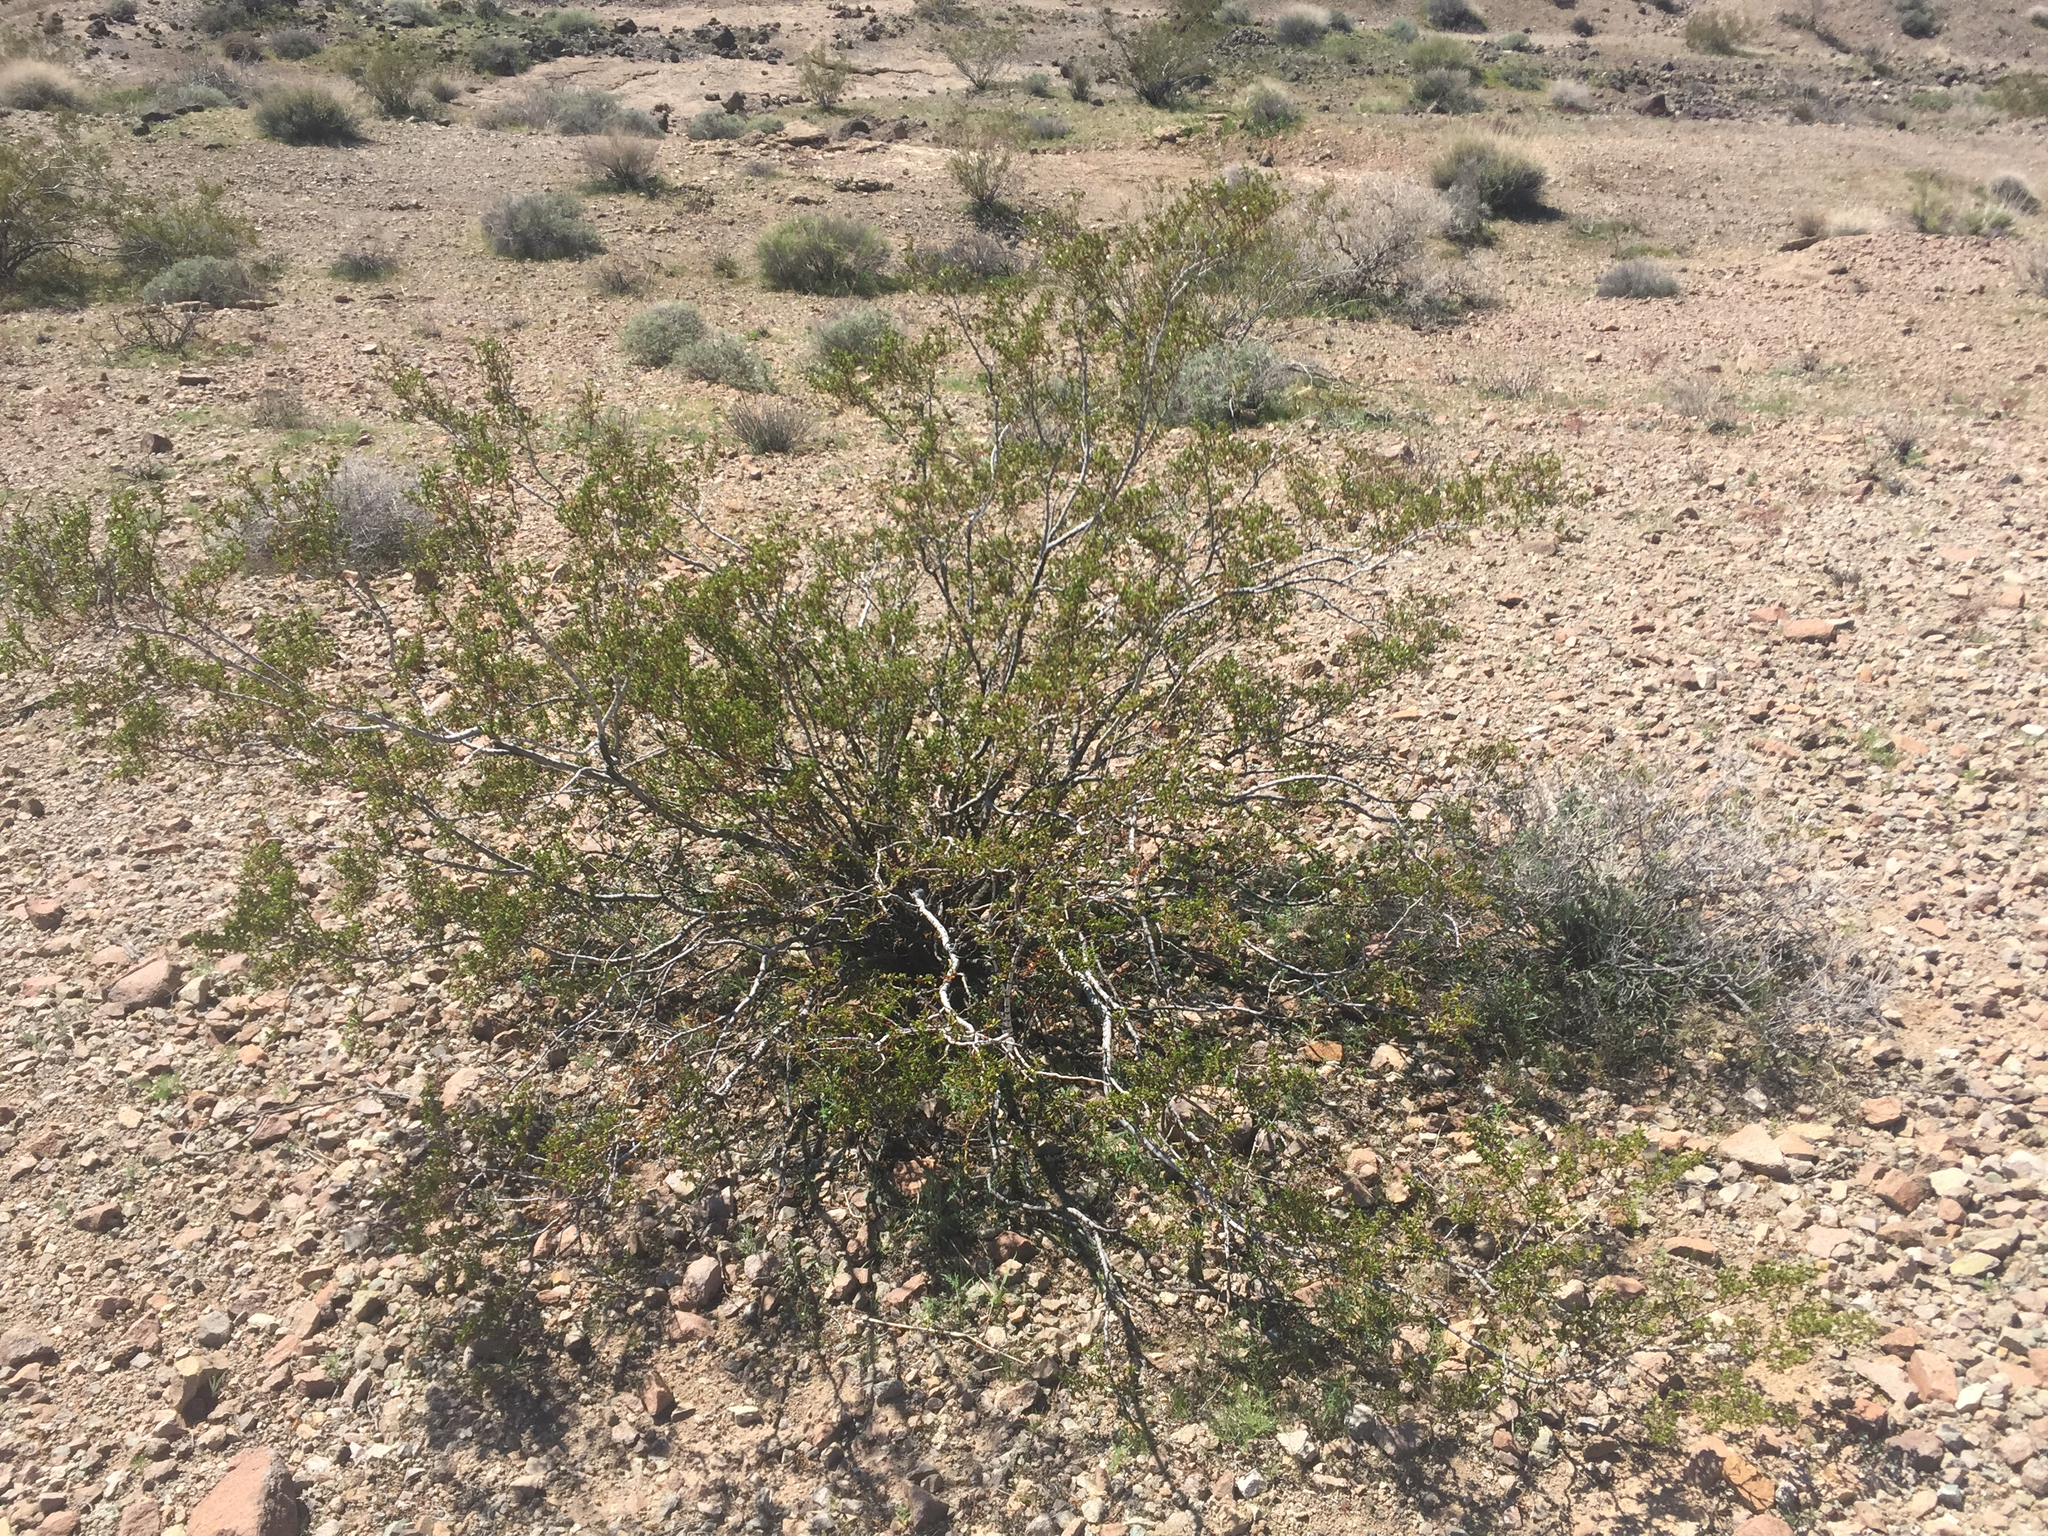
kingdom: Plantae
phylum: Tracheophyta
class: Magnoliopsida
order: Zygophyllales
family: Zygophyllaceae
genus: Larrea
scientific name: Larrea tridentata
